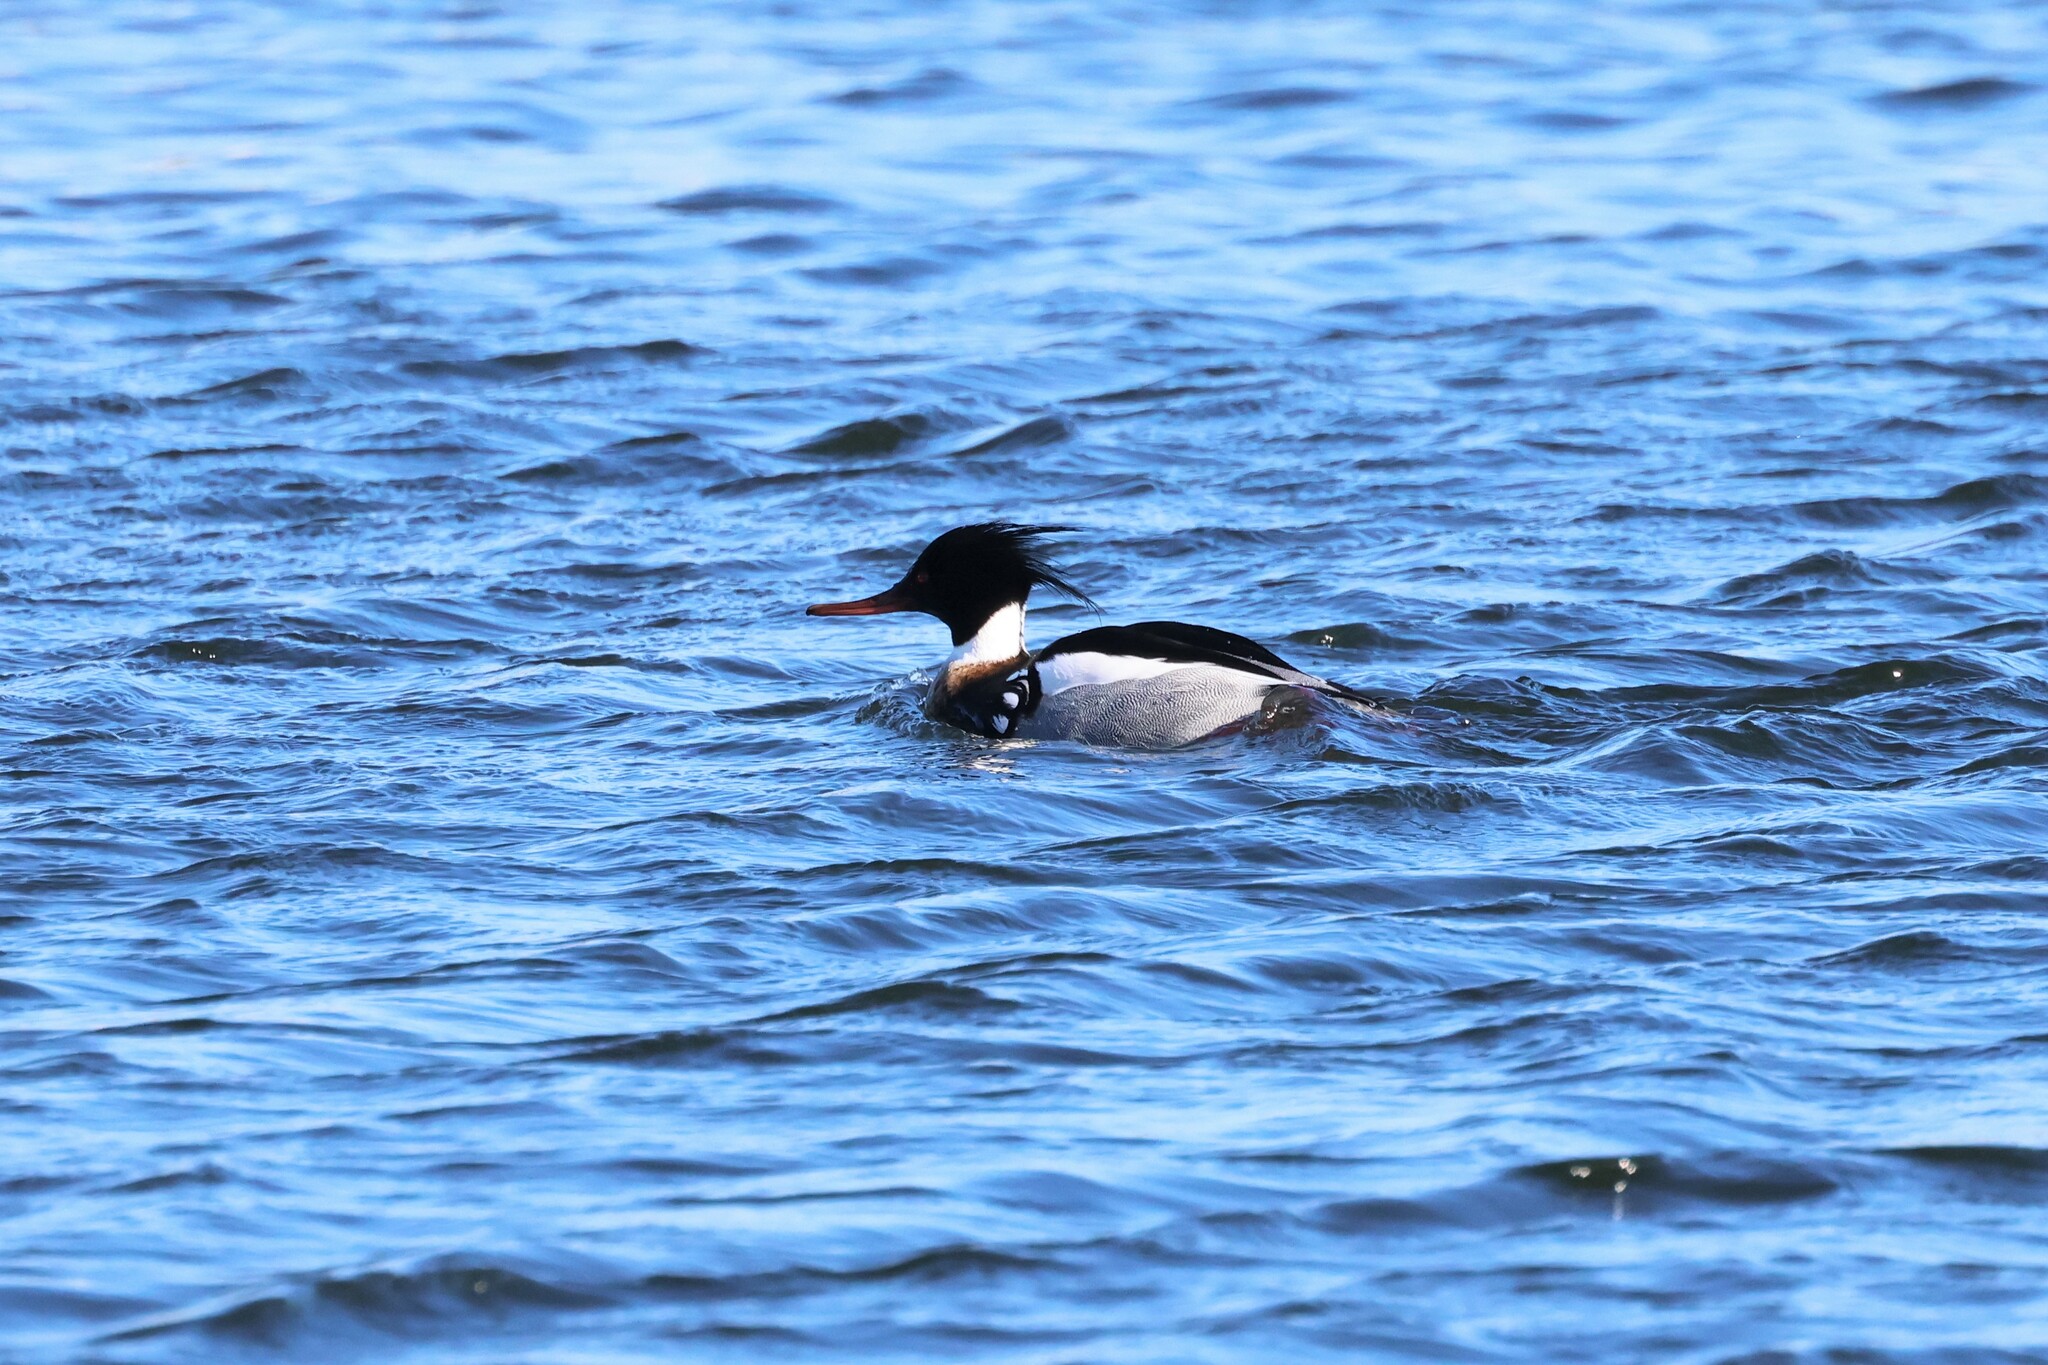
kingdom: Animalia
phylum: Chordata
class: Aves
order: Anseriformes
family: Anatidae
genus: Mergus
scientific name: Mergus serrator
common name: Red-breasted merganser
